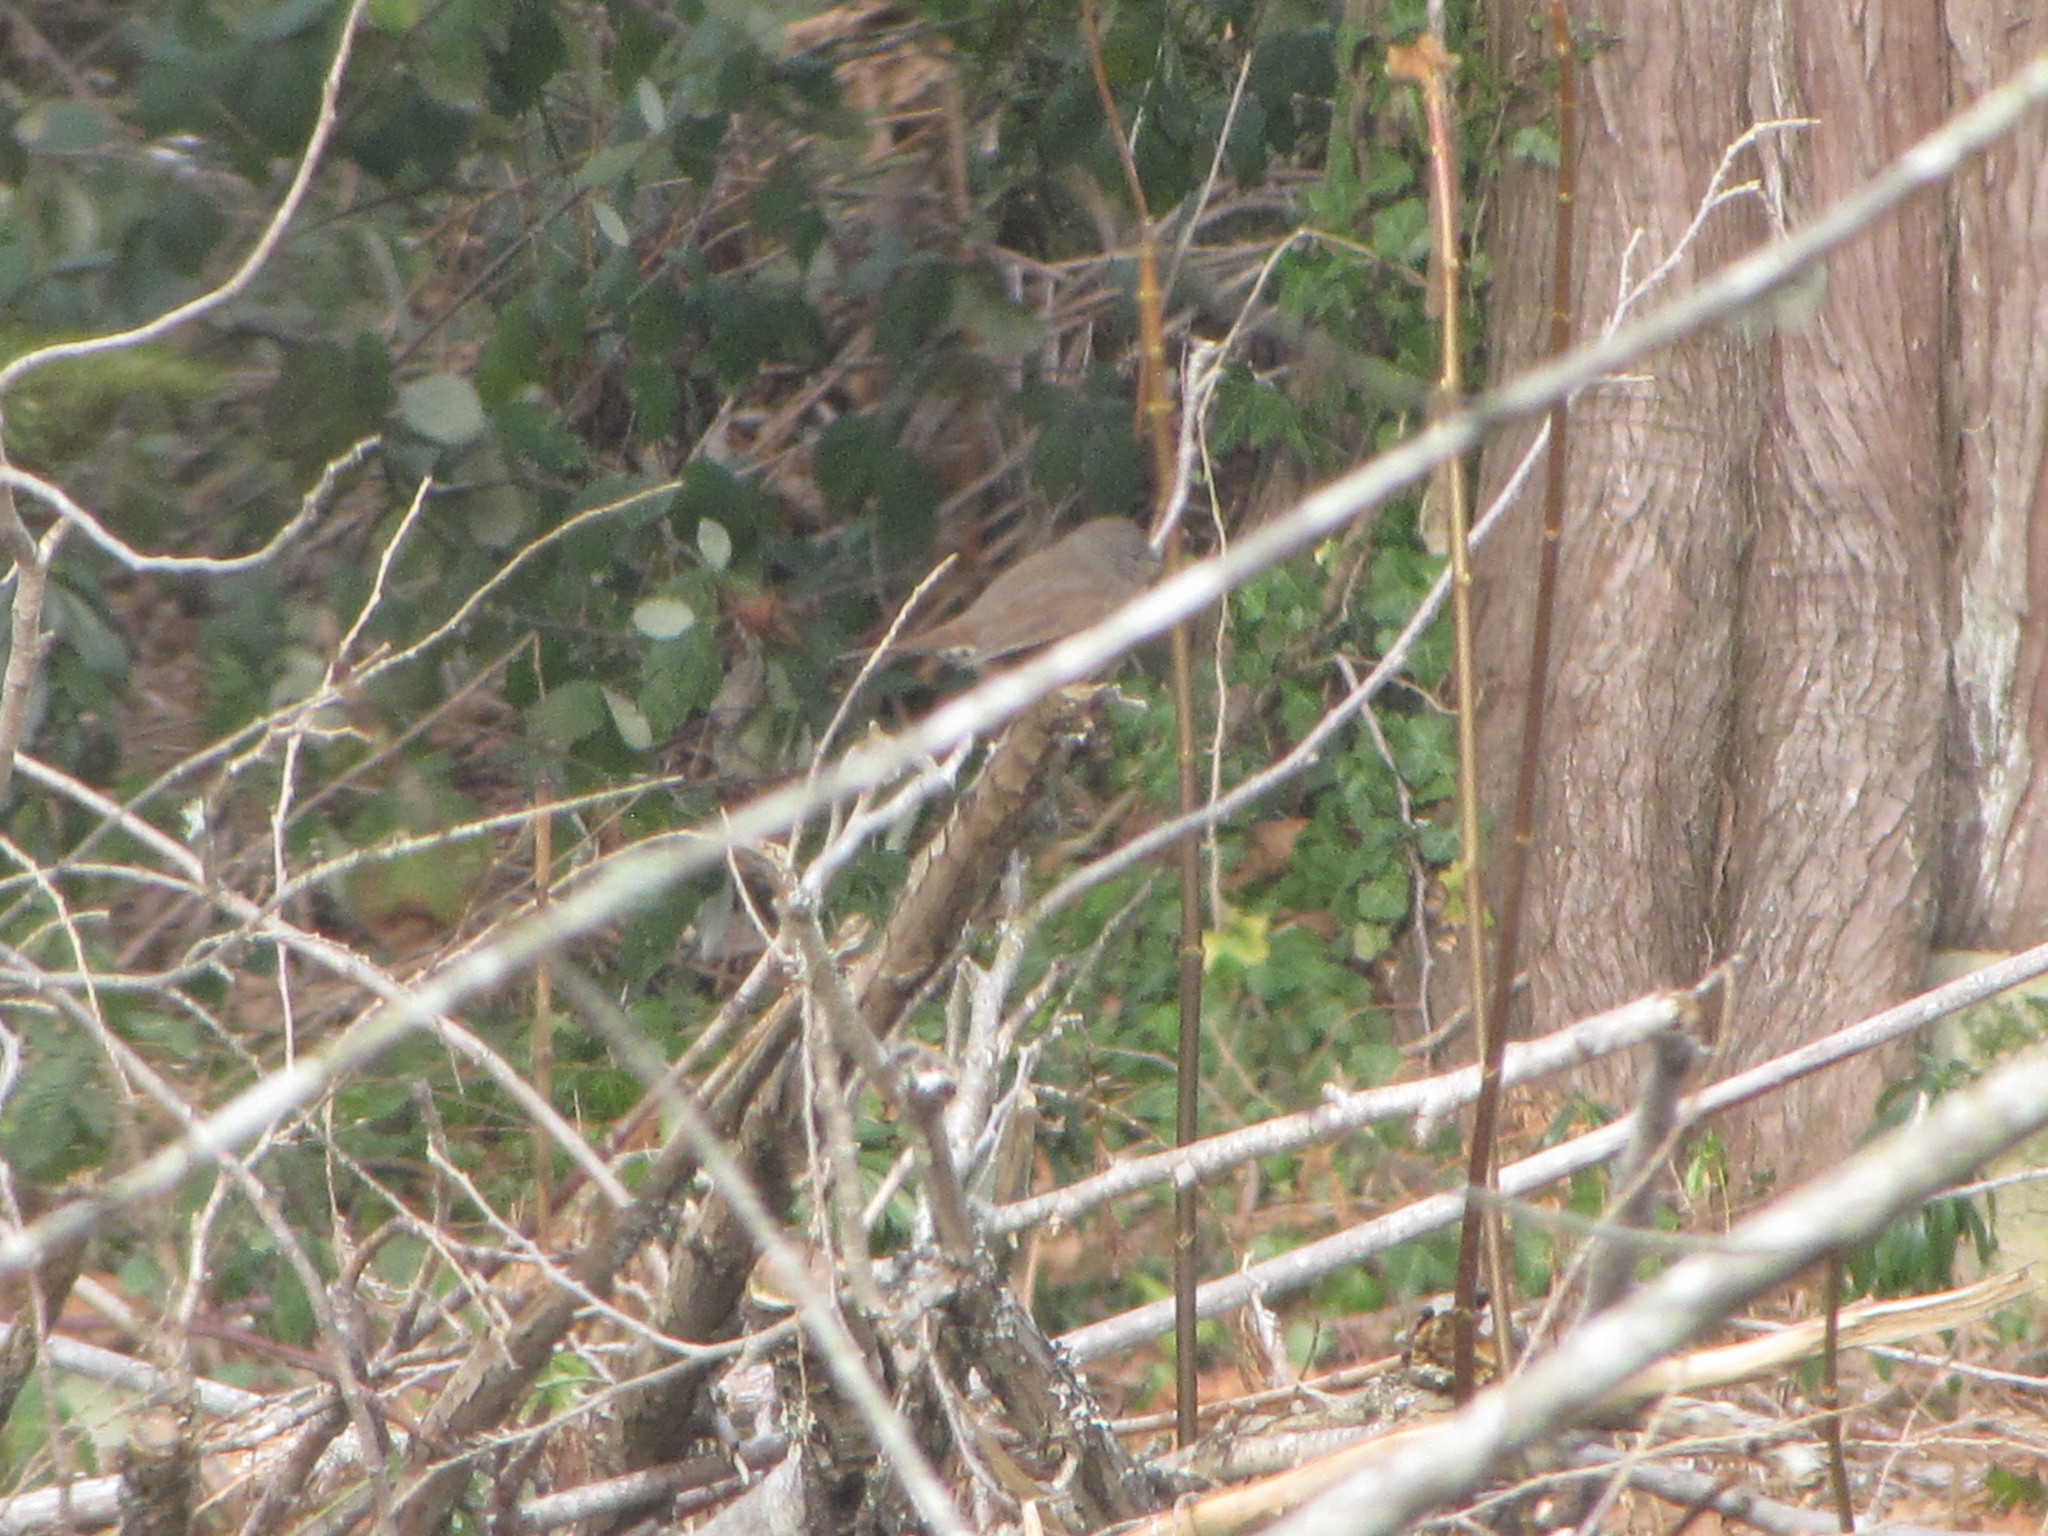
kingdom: Animalia
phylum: Chordata
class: Aves
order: Passeriformes
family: Passerellidae
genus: Passerella
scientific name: Passerella iliaca
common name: Fox sparrow
